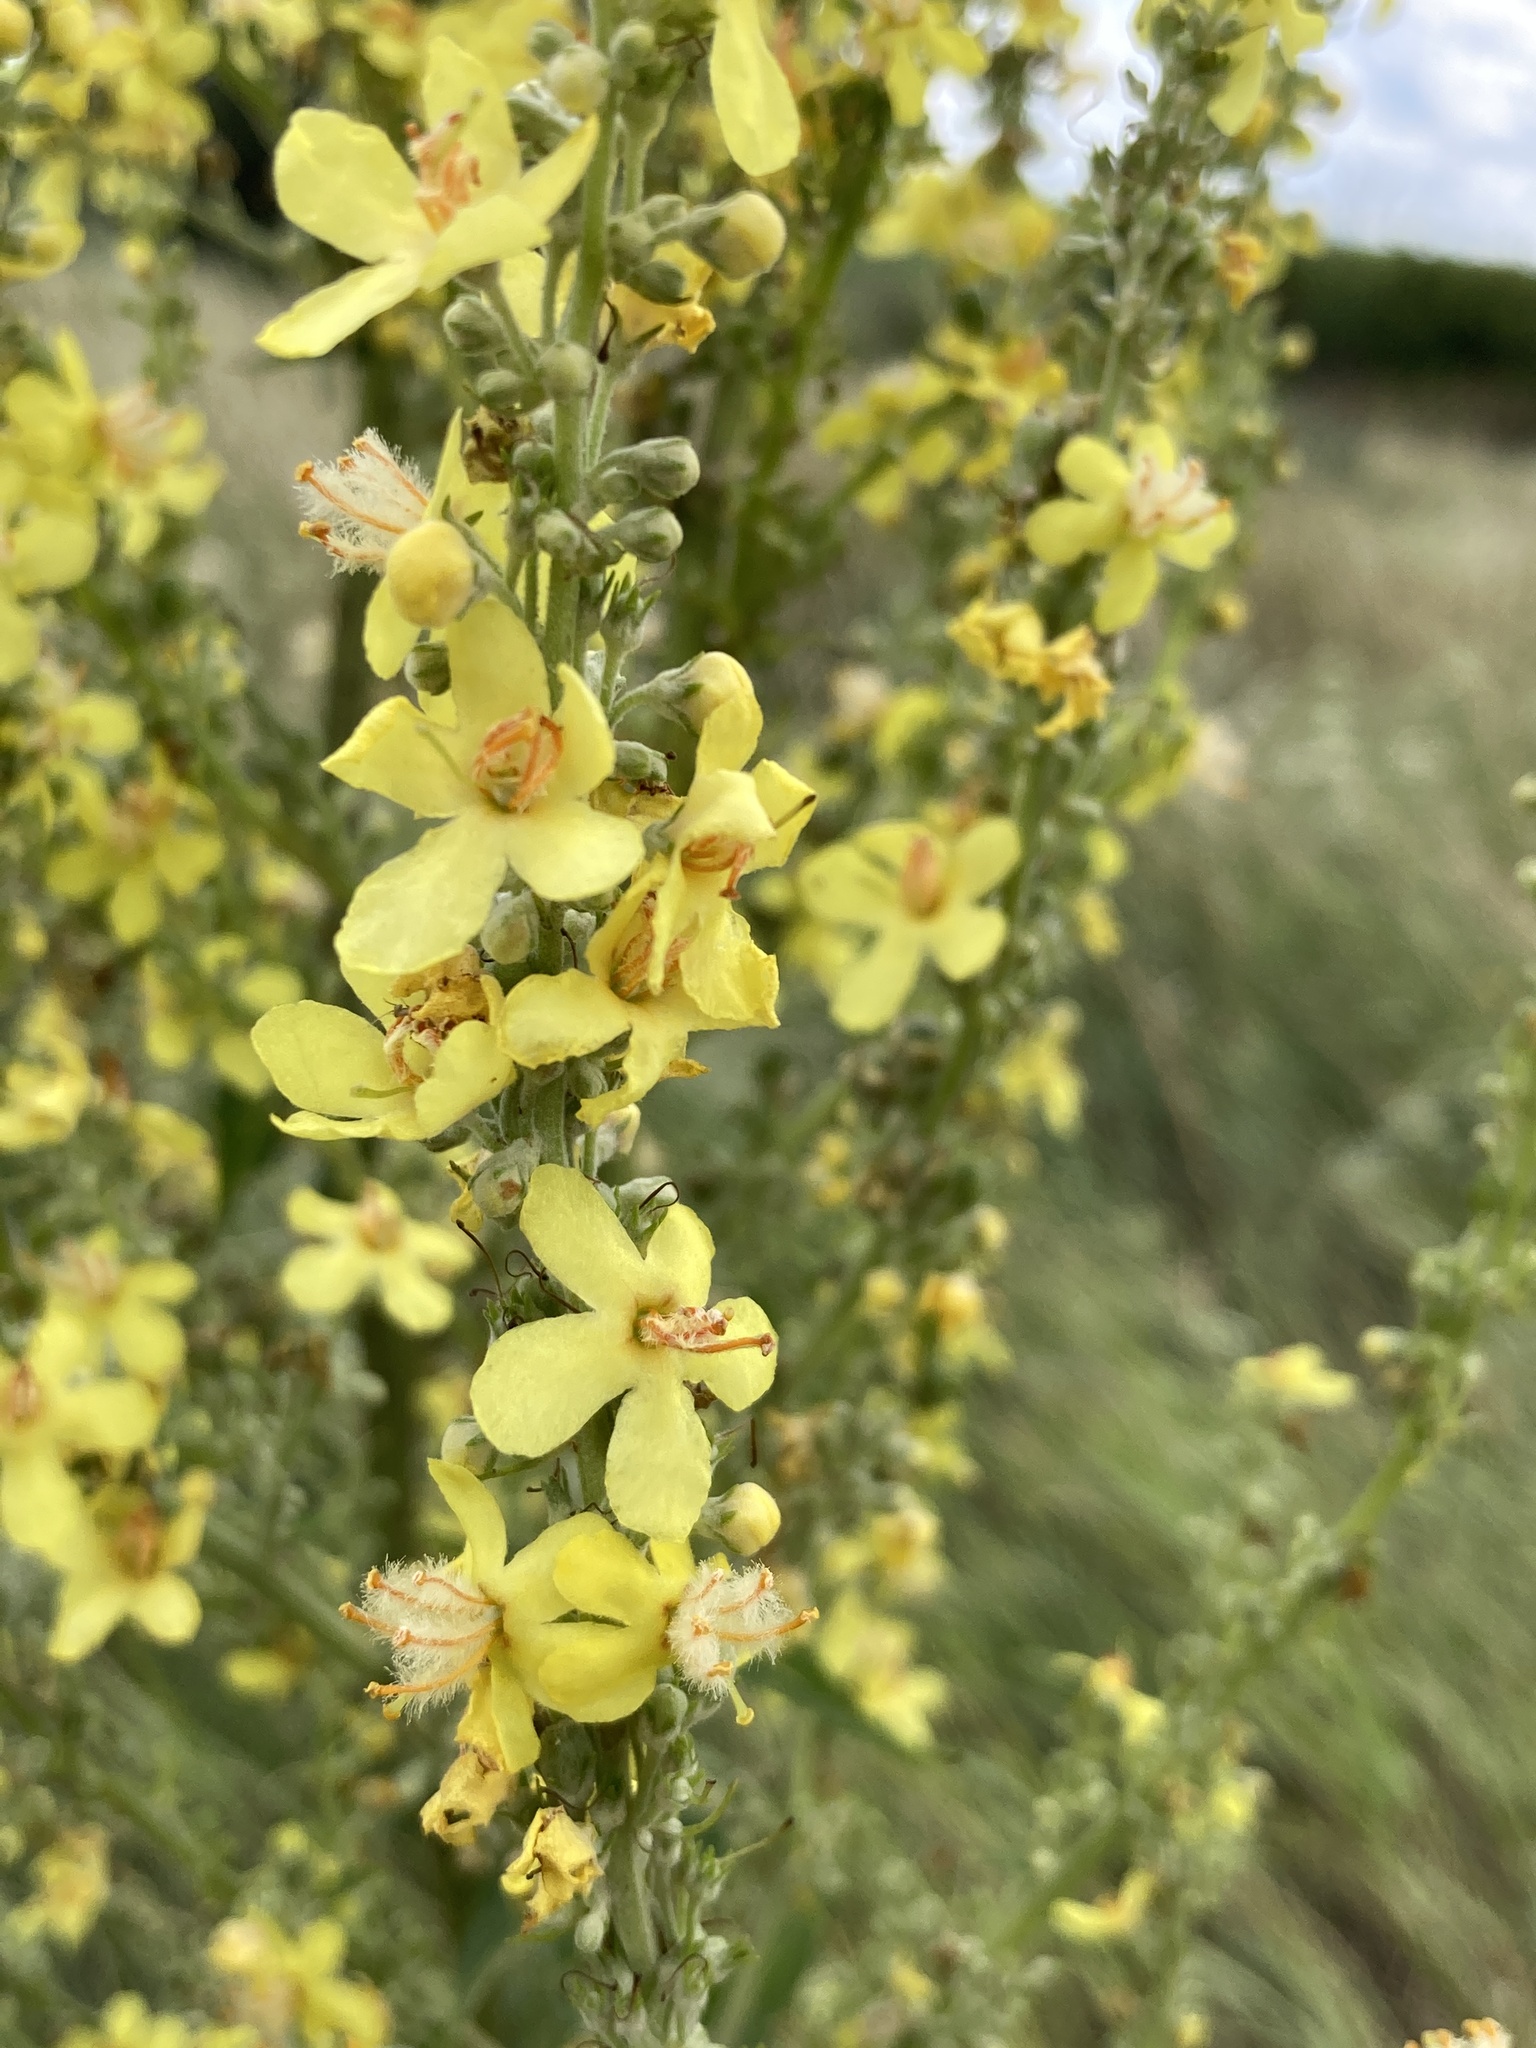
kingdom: Plantae
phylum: Tracheophyta
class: Magnoliopsida
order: Lamiales
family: Scrophulariaceae
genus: Verbascum
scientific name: Verbascum lychnitis
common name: White mullein
